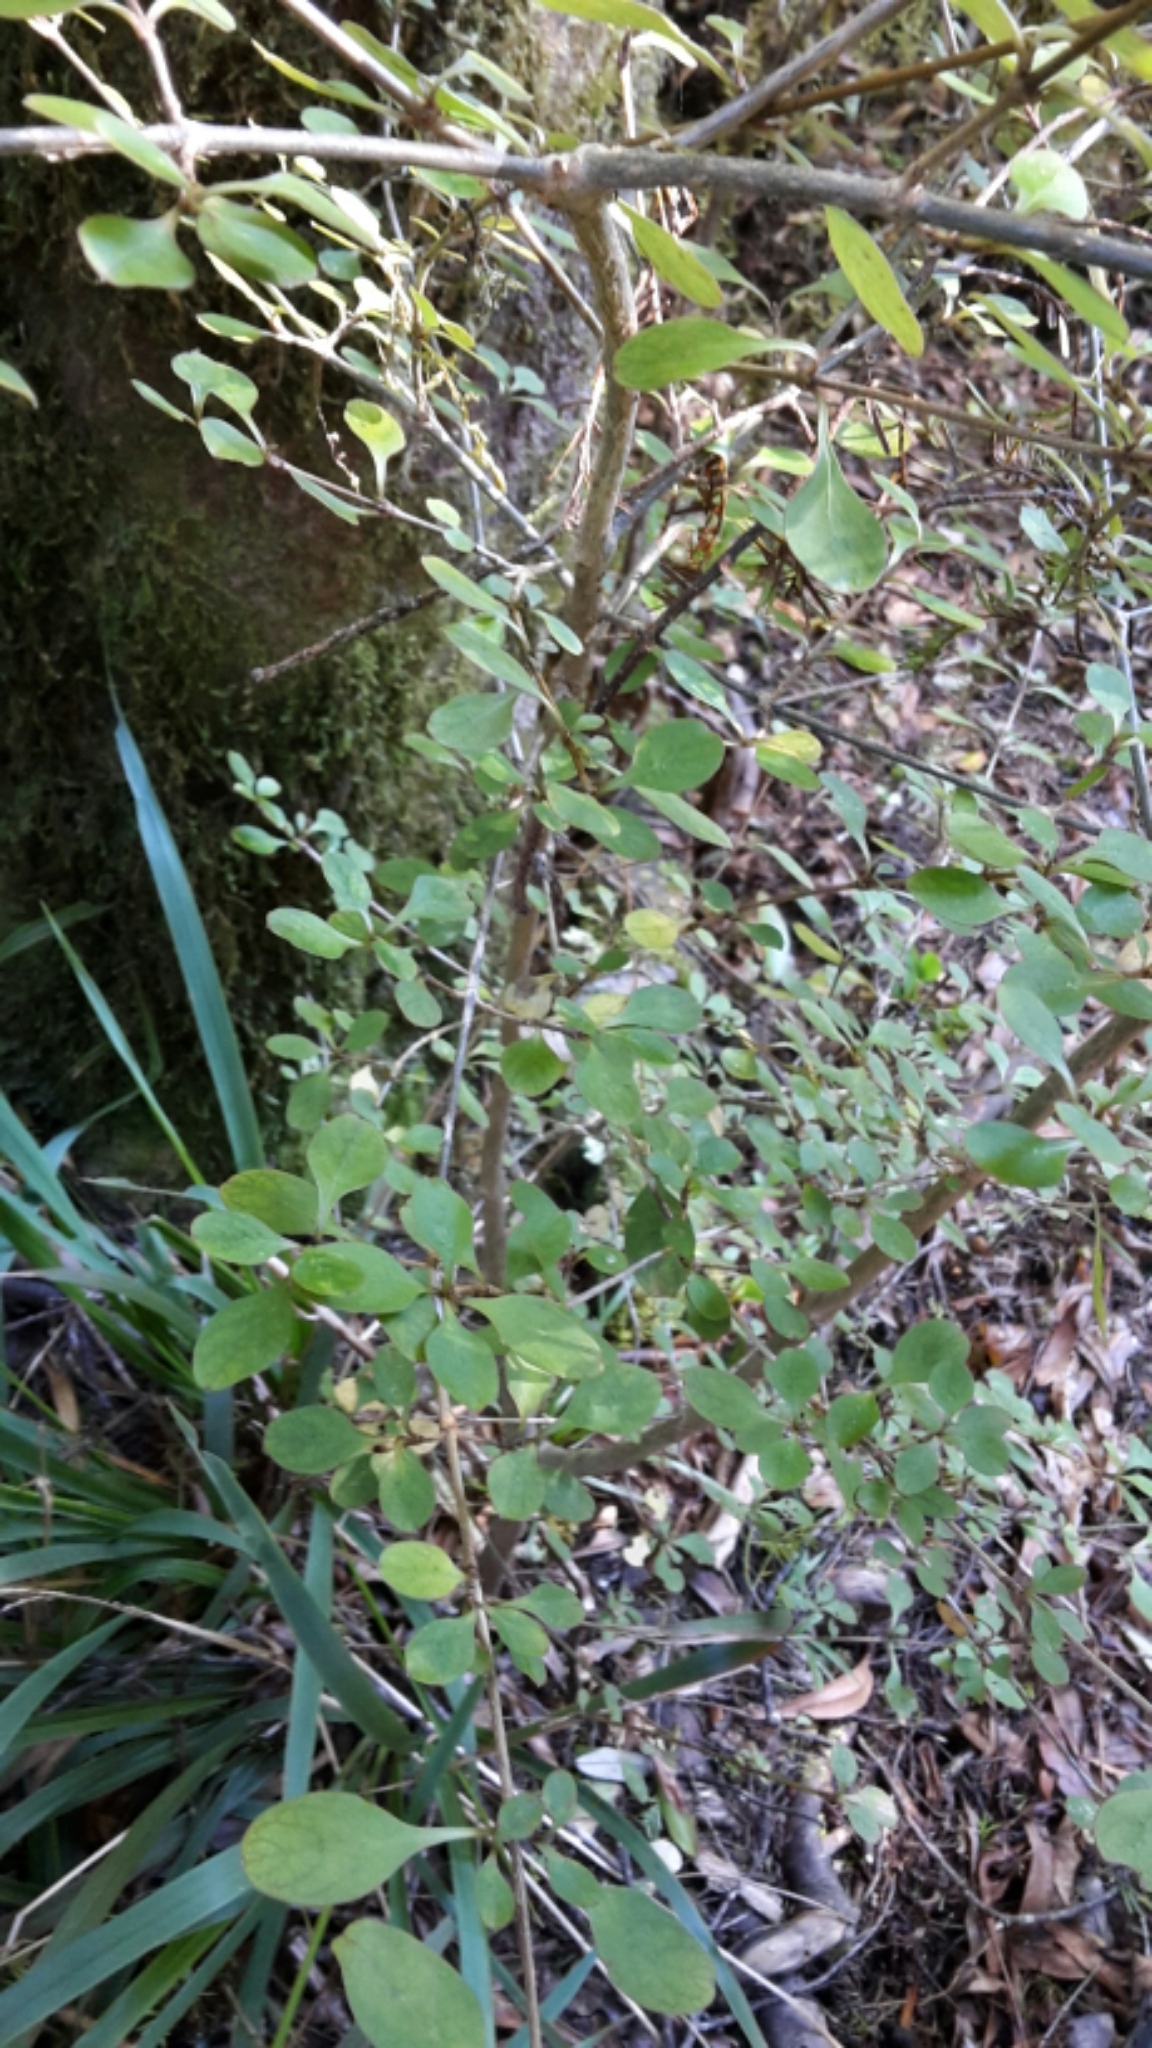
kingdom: Plantae
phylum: Tracheophyta
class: Magnoliopsida
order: Gentianales
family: Rubiaceae
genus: Coprosma
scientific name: Coprosma foetidissima
